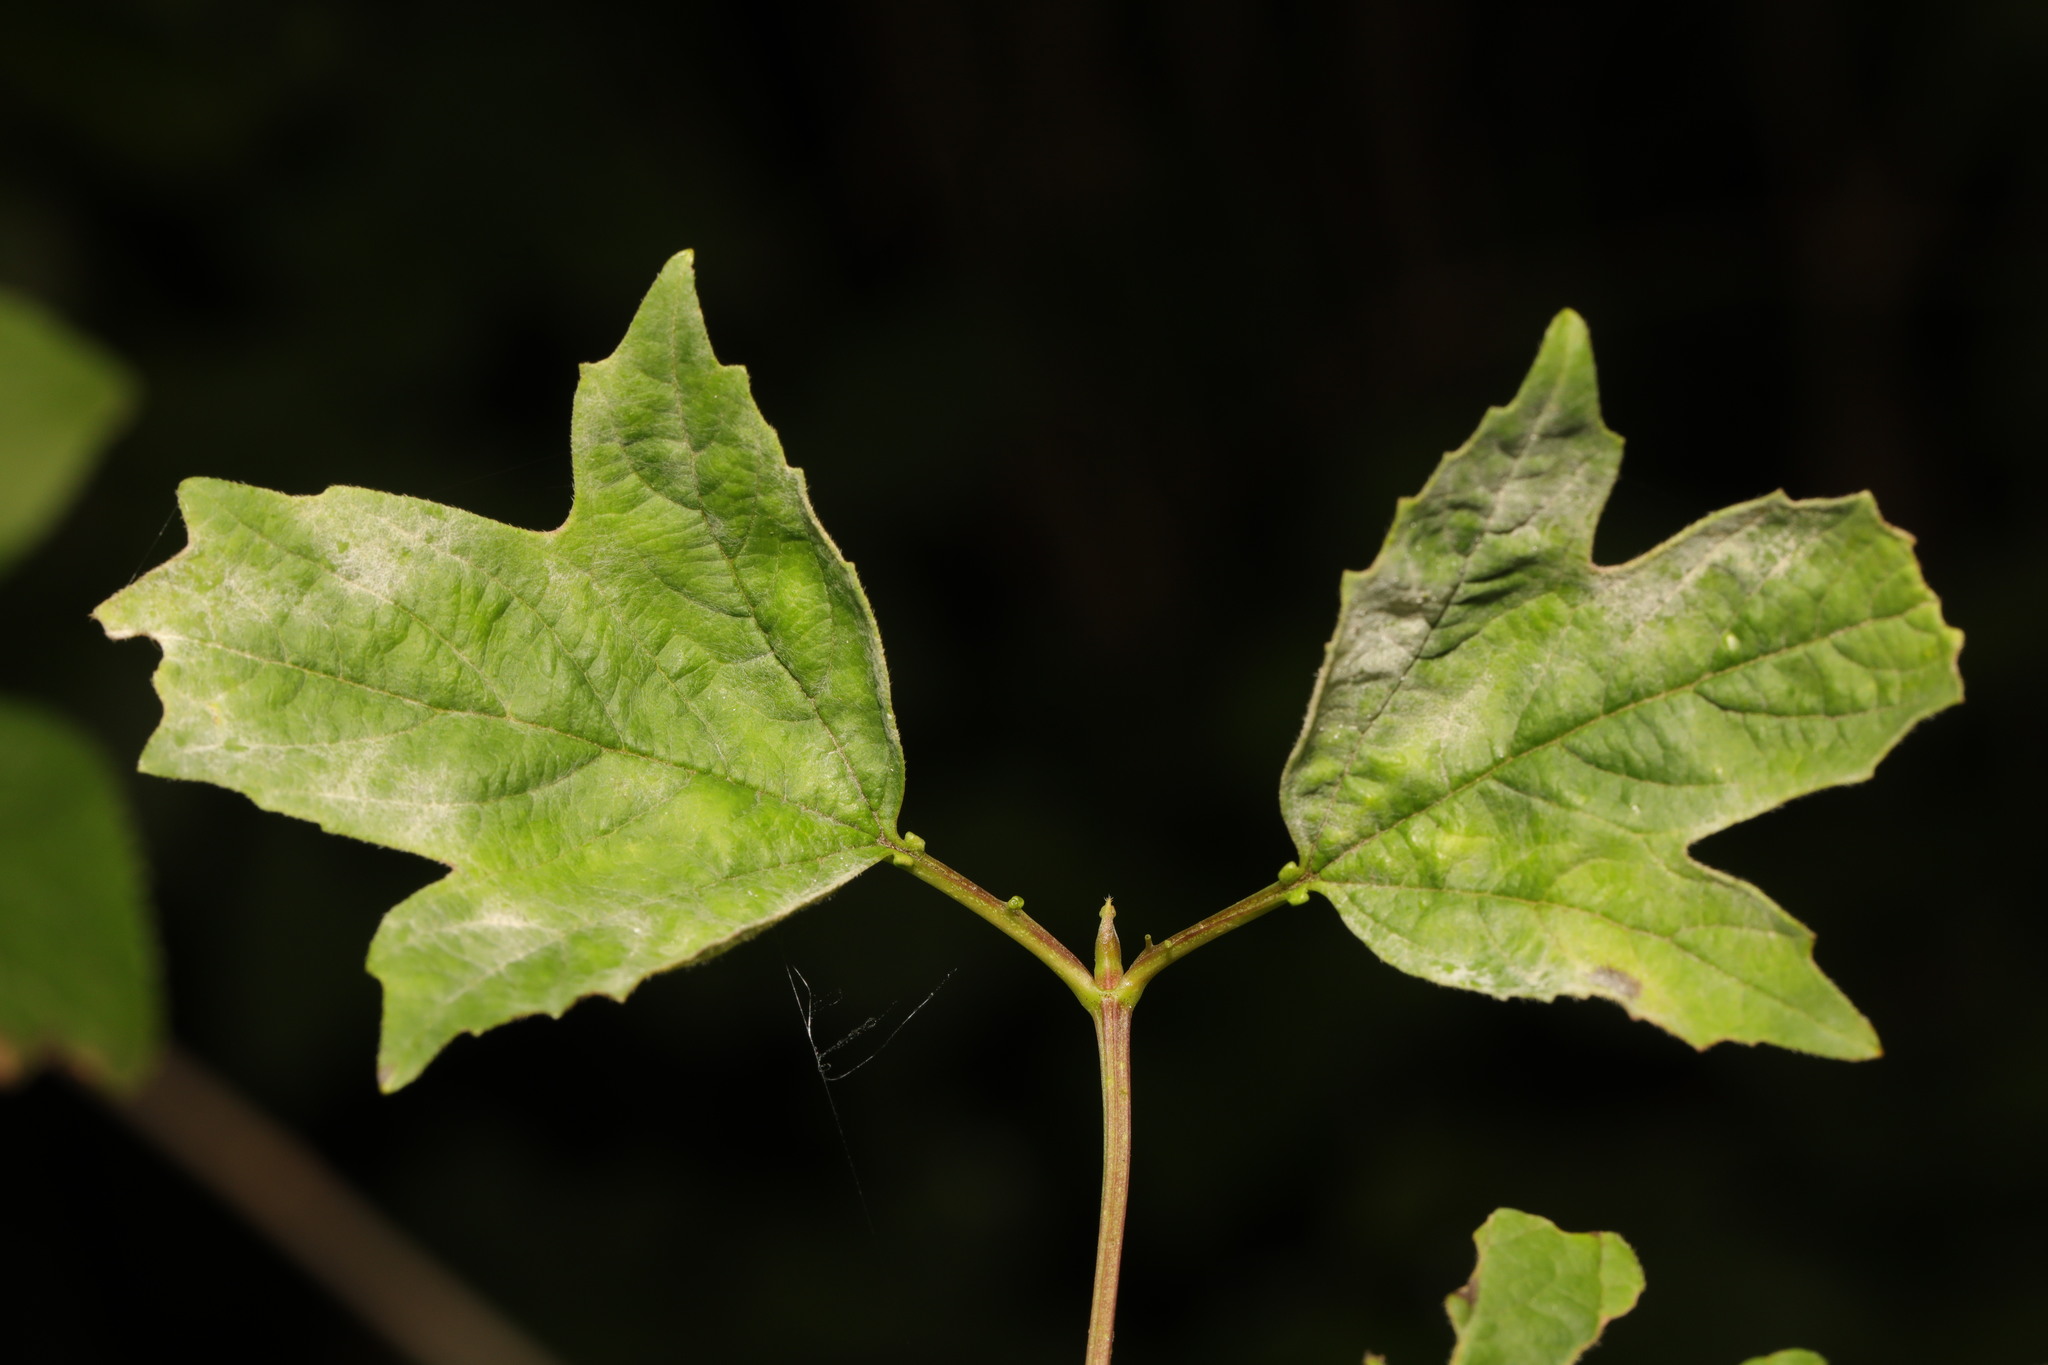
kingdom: Fungi
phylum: Ascomycota
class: Leotiomycetes
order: Helotiales
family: Erysiphaceae
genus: Erysiphe
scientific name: Erysiphe viburni
